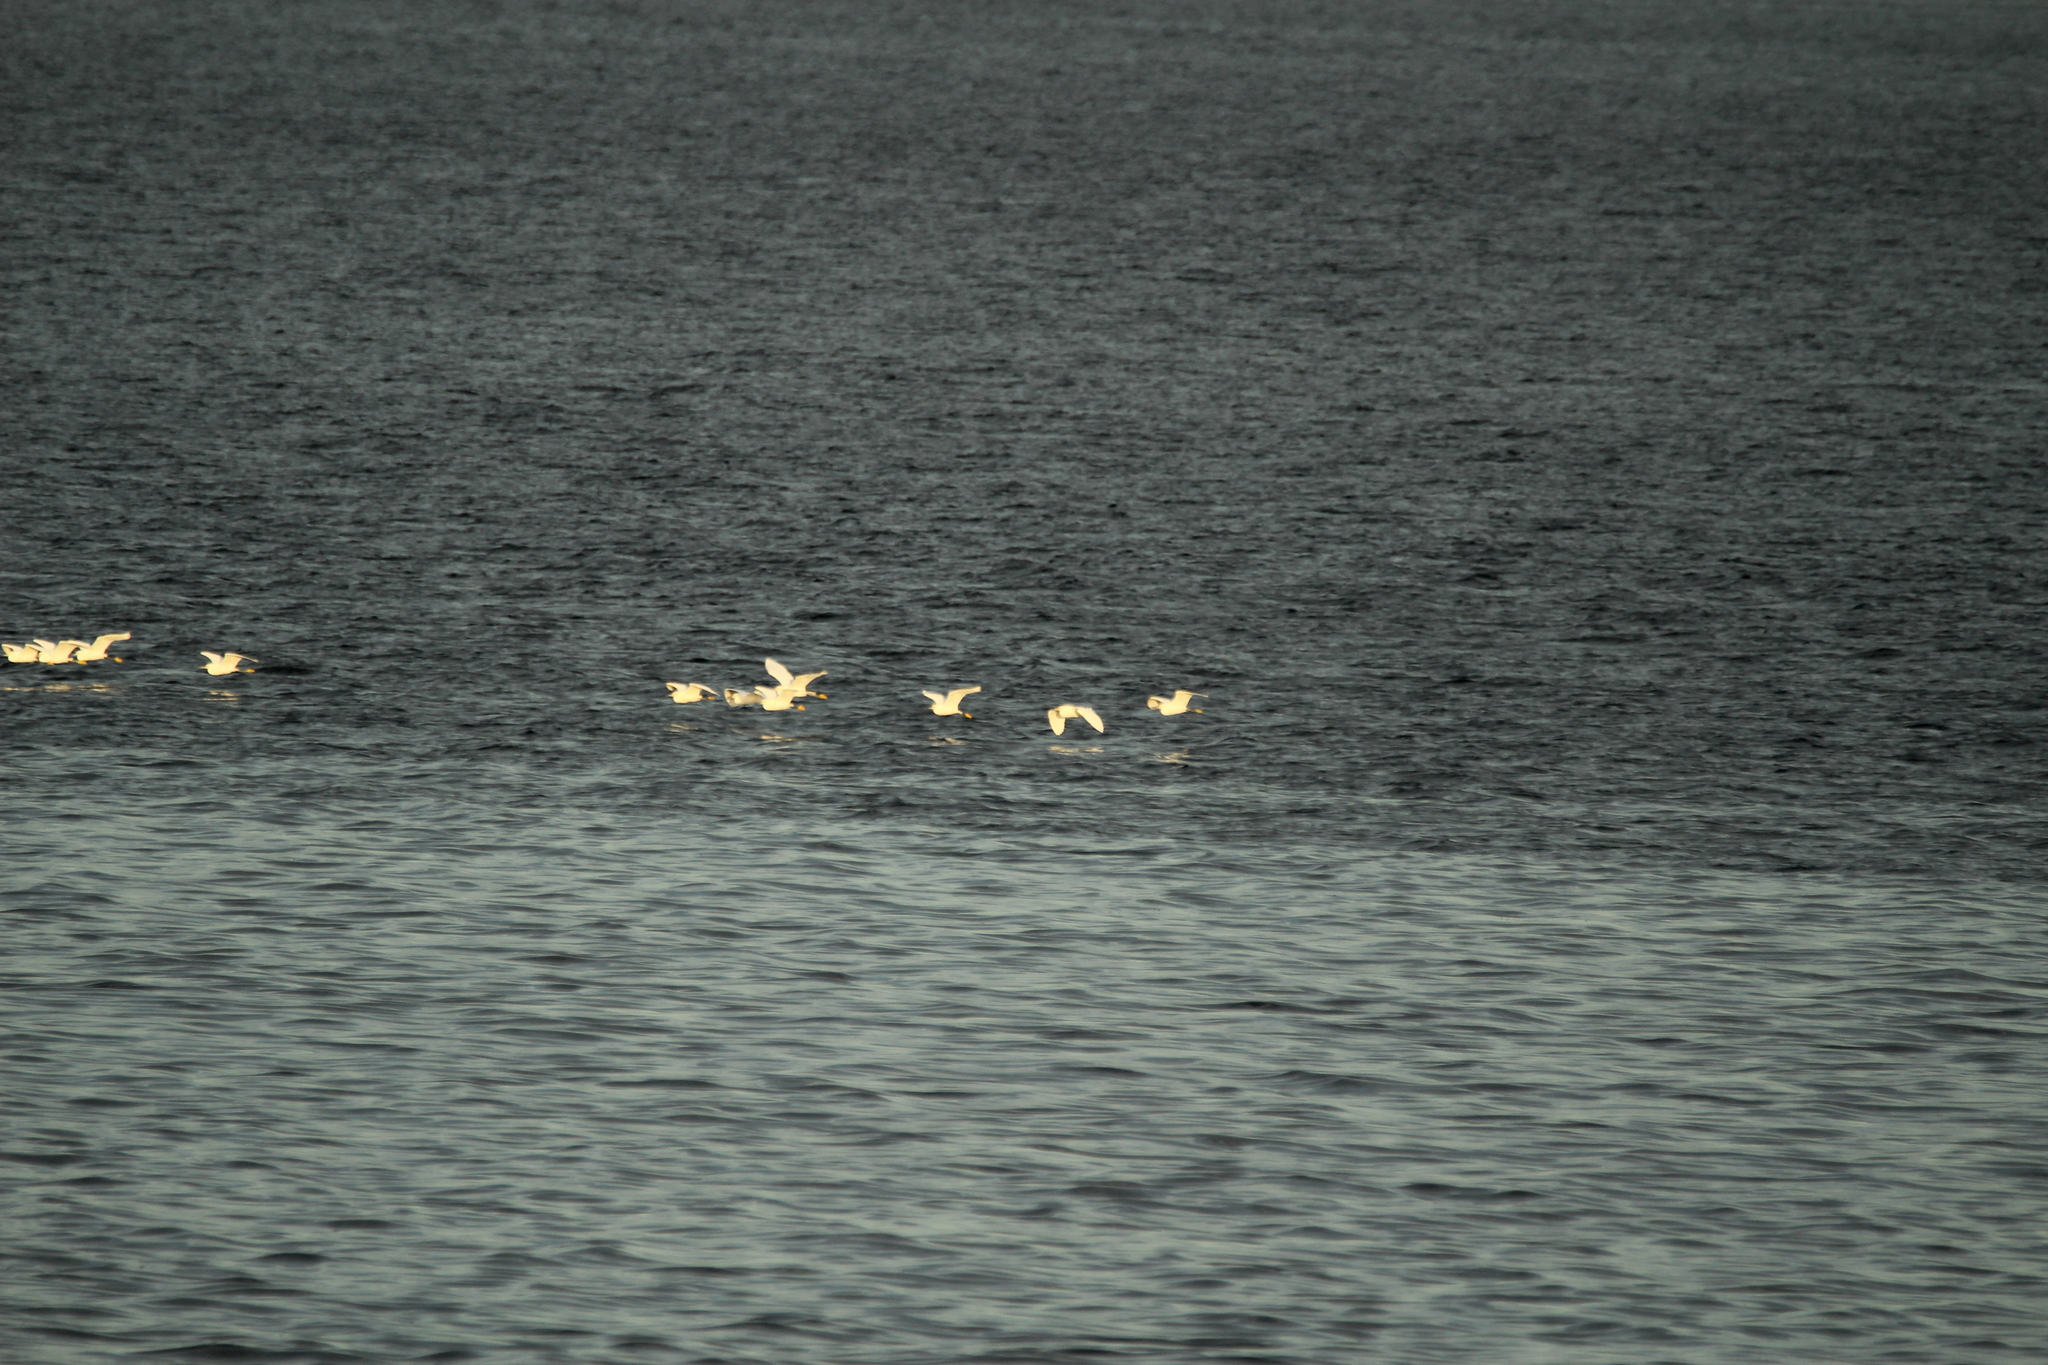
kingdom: Animalia
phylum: Chordata
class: Aves
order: Pelecaniformes
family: Ardeidae
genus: Egretta
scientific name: Egretta thula
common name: Snowy egret
